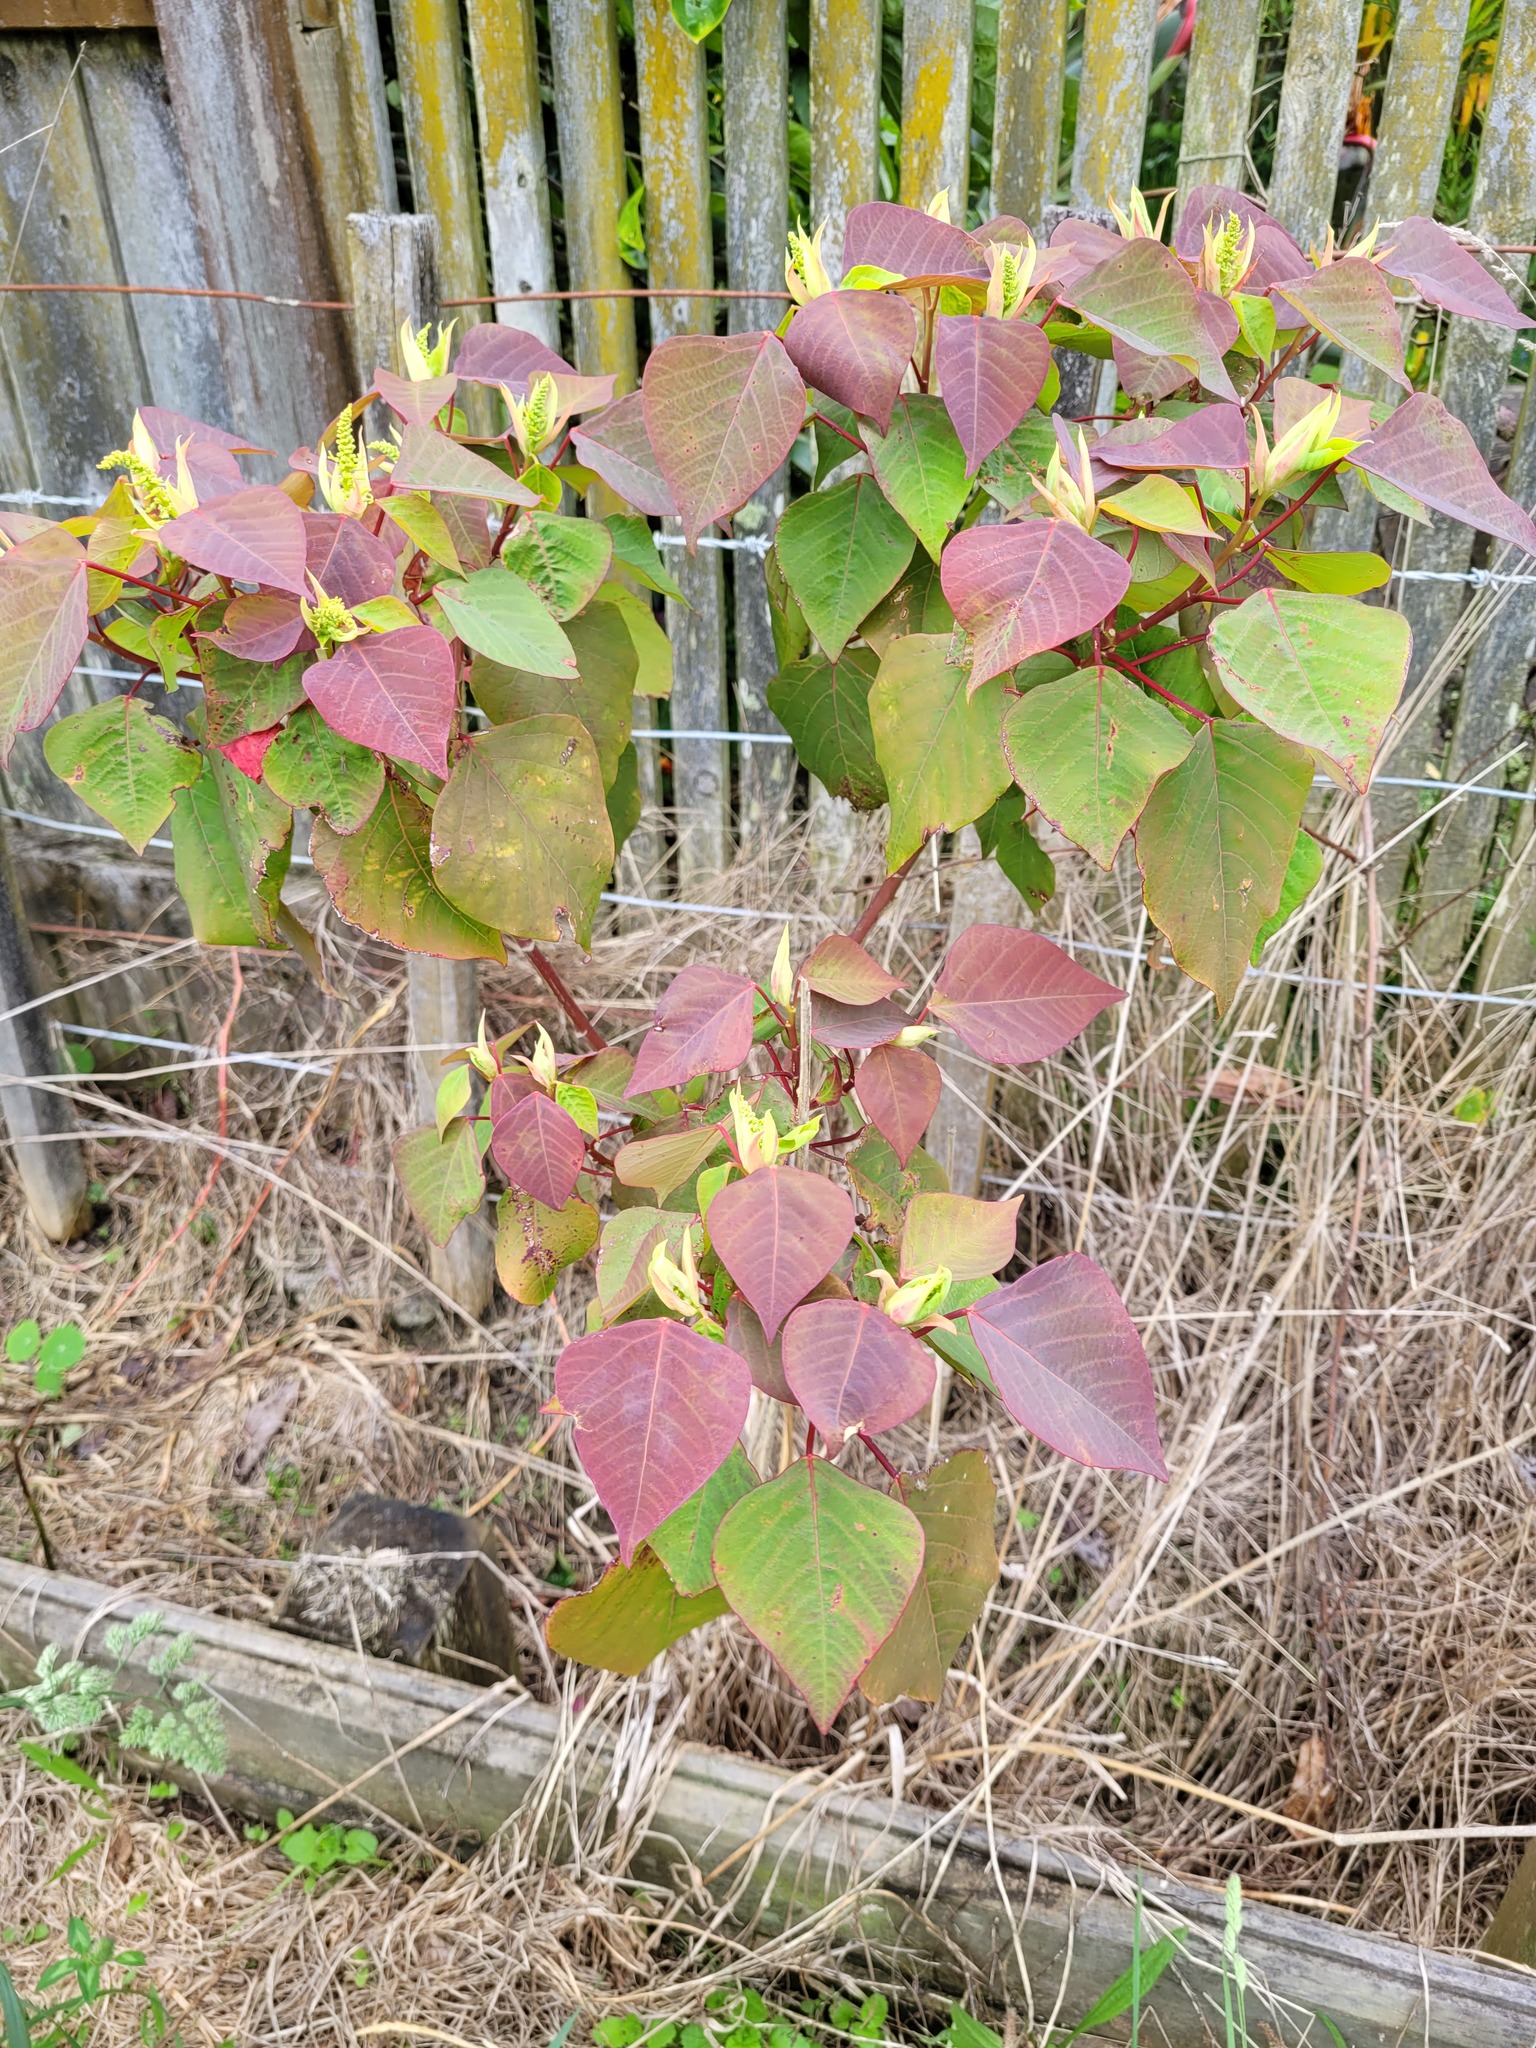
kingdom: Plantae
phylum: Tracheophyta
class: Magnoliopsida
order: Malpighiales
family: Euphorbiaceae
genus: Homalanthus
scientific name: Homalanthus populifolius
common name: Queensland poplar
